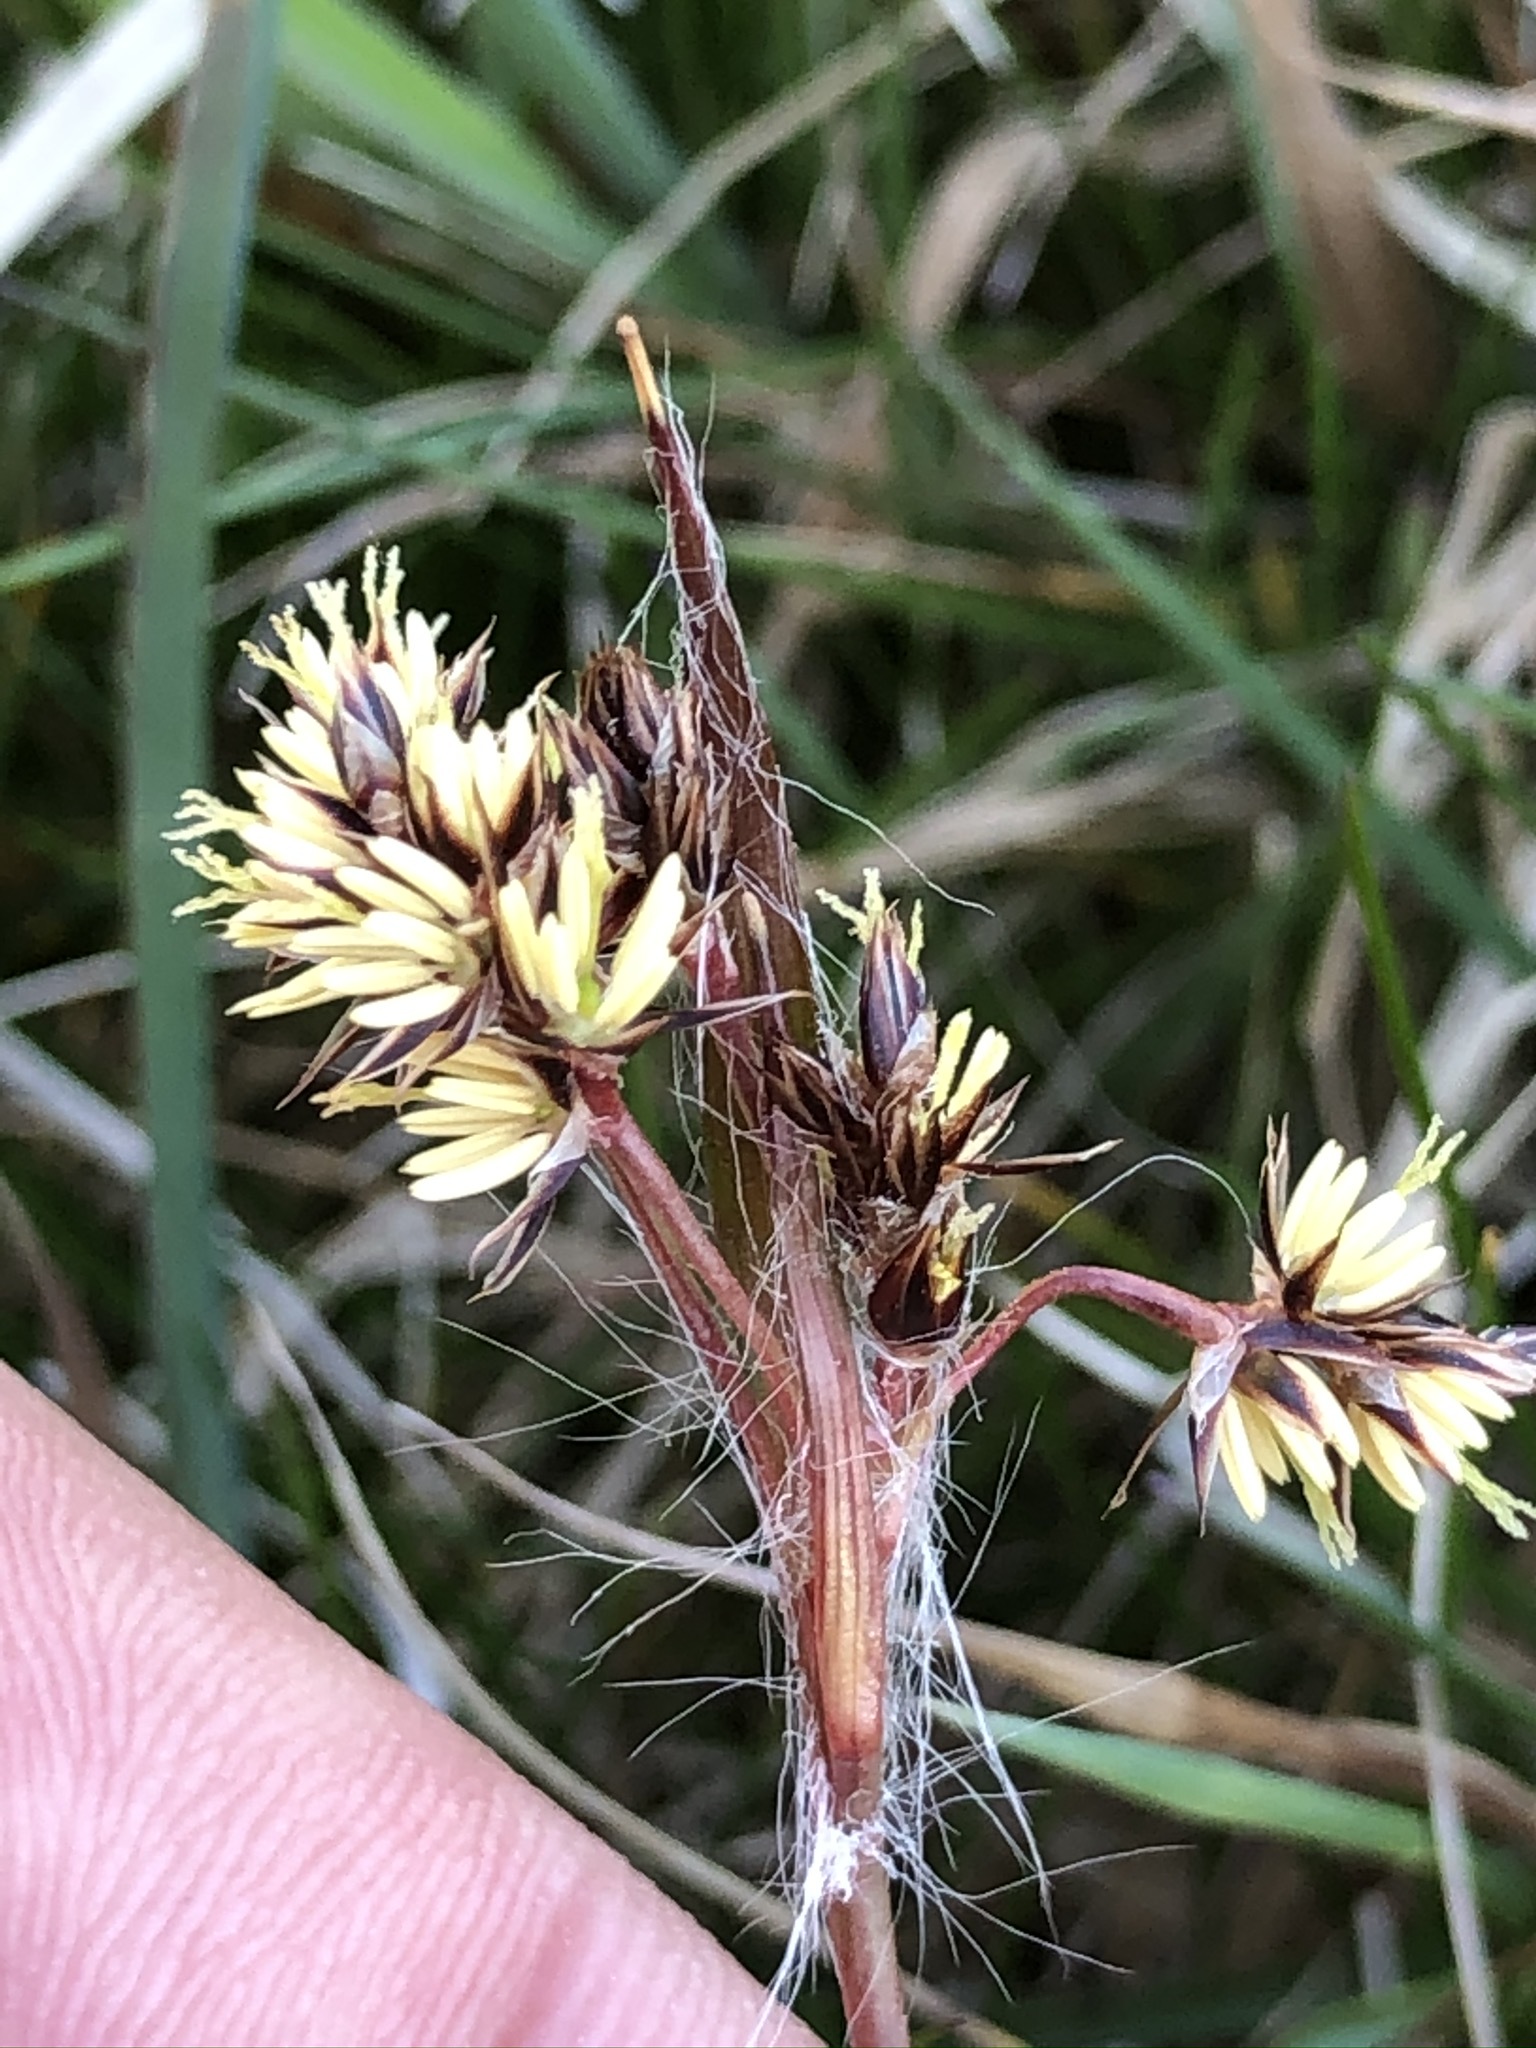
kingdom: Plantae
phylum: Tracheophyta
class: Liliopsida
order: Poales
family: Juncaceae
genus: Luzula
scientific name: Luzula campestris
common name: Field wood-rush
